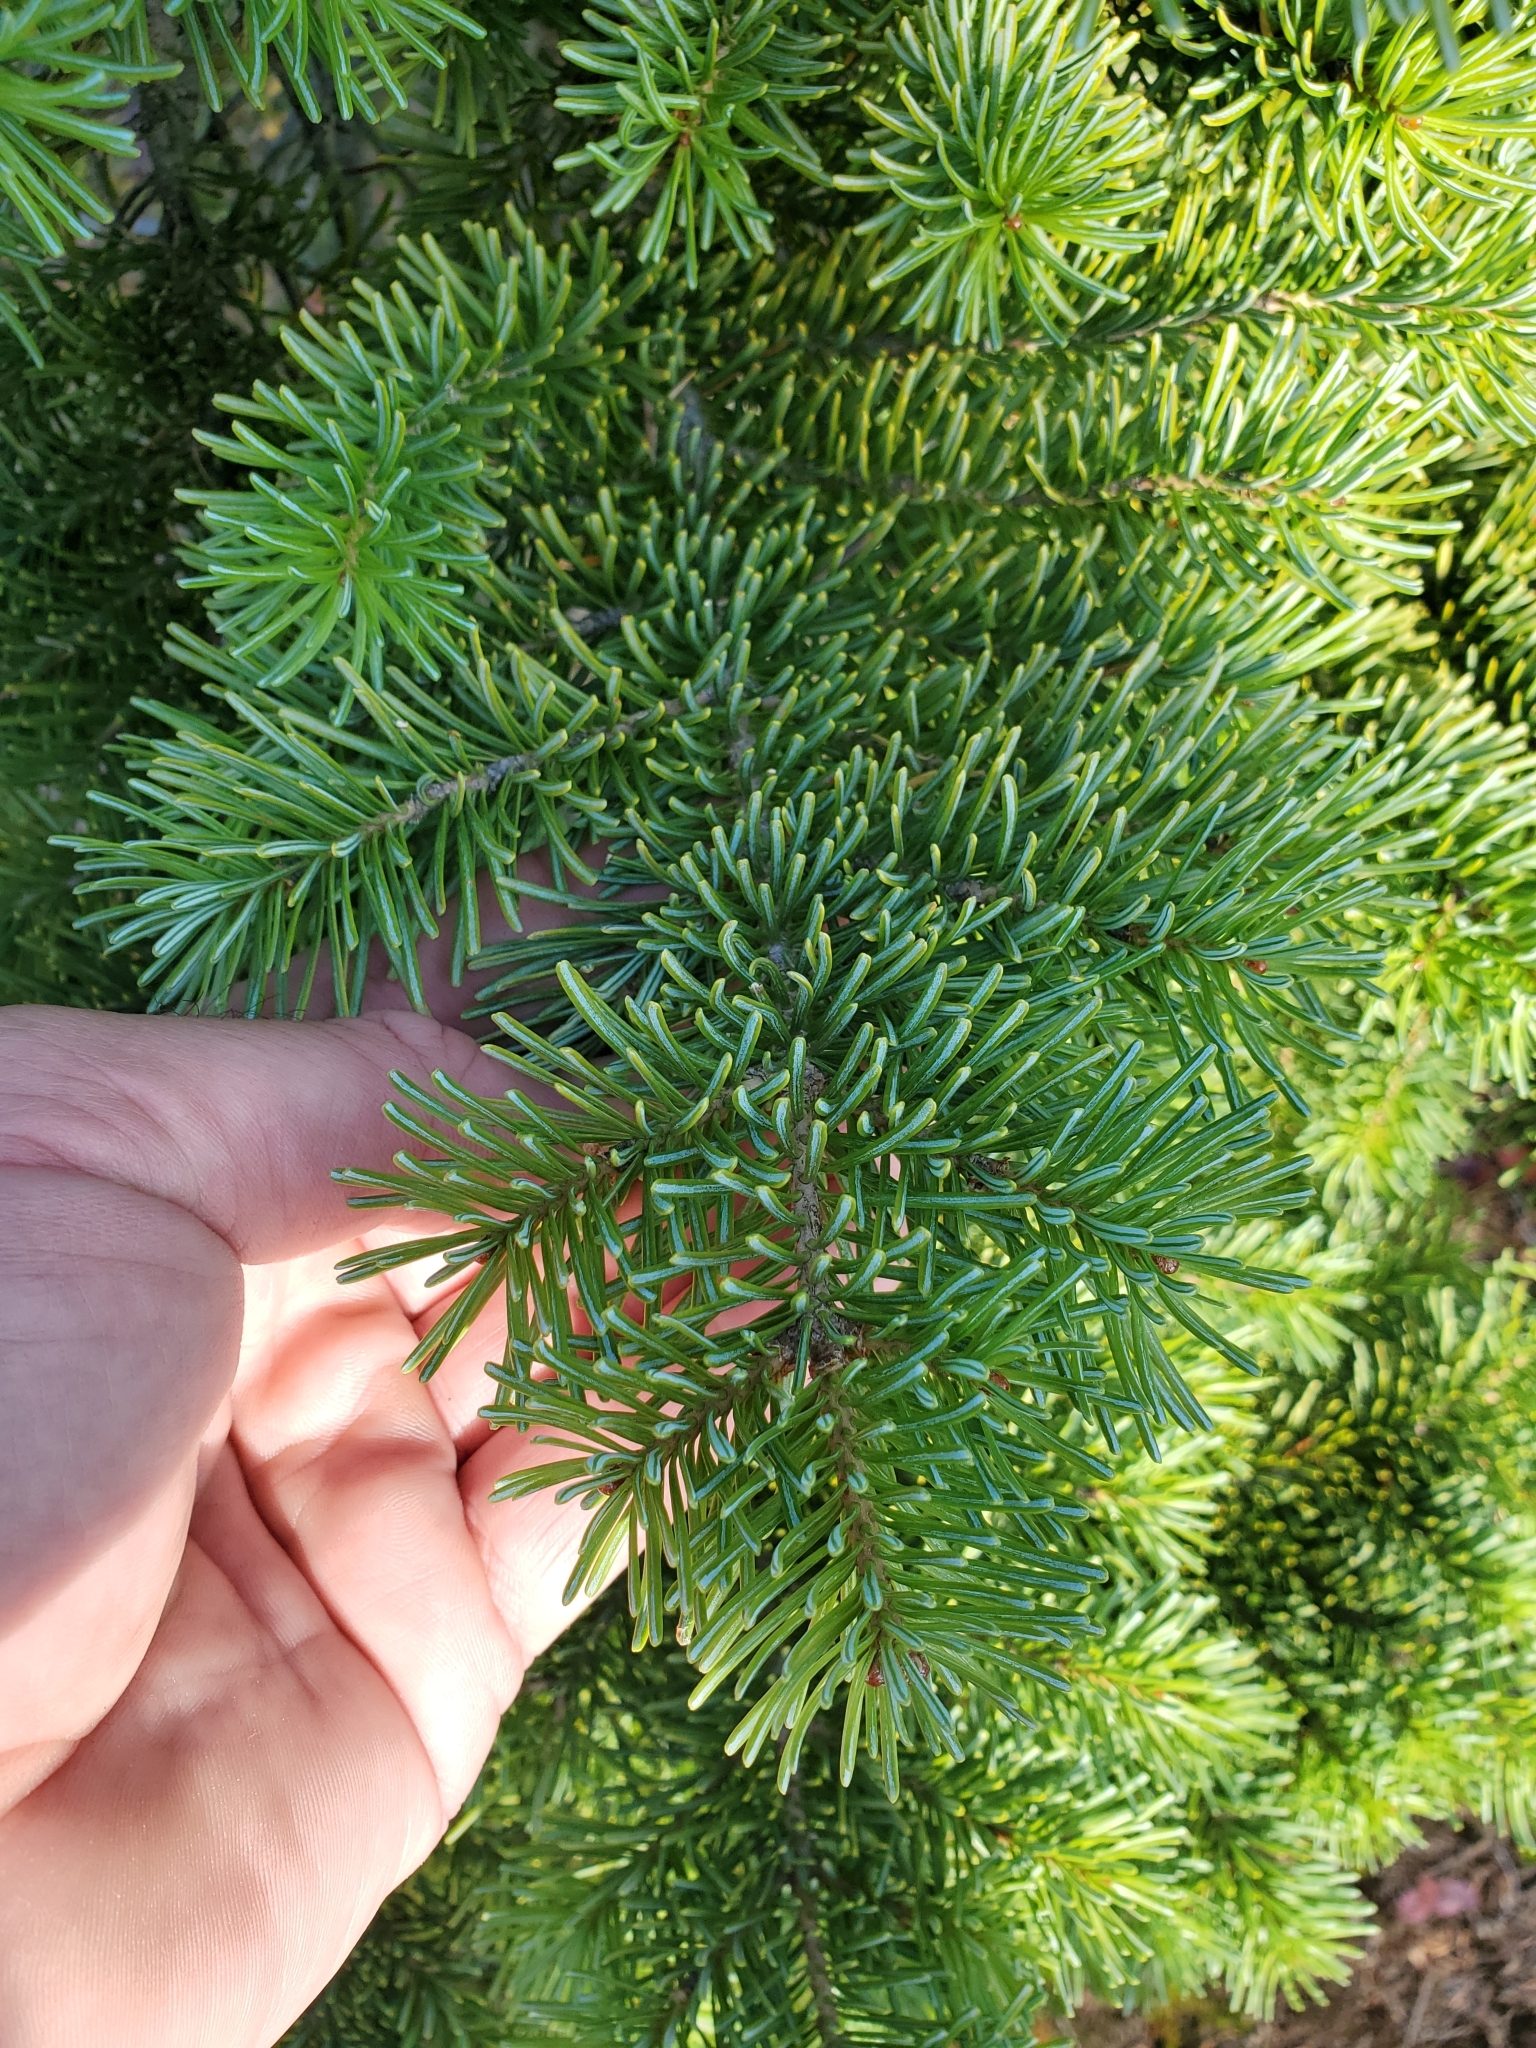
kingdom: Plantae
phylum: Tracheophyta
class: Pinopsida
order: Pinales
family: Pinaceae
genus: Abies
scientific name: Abies lasiocarpa
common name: Subalpine fir
